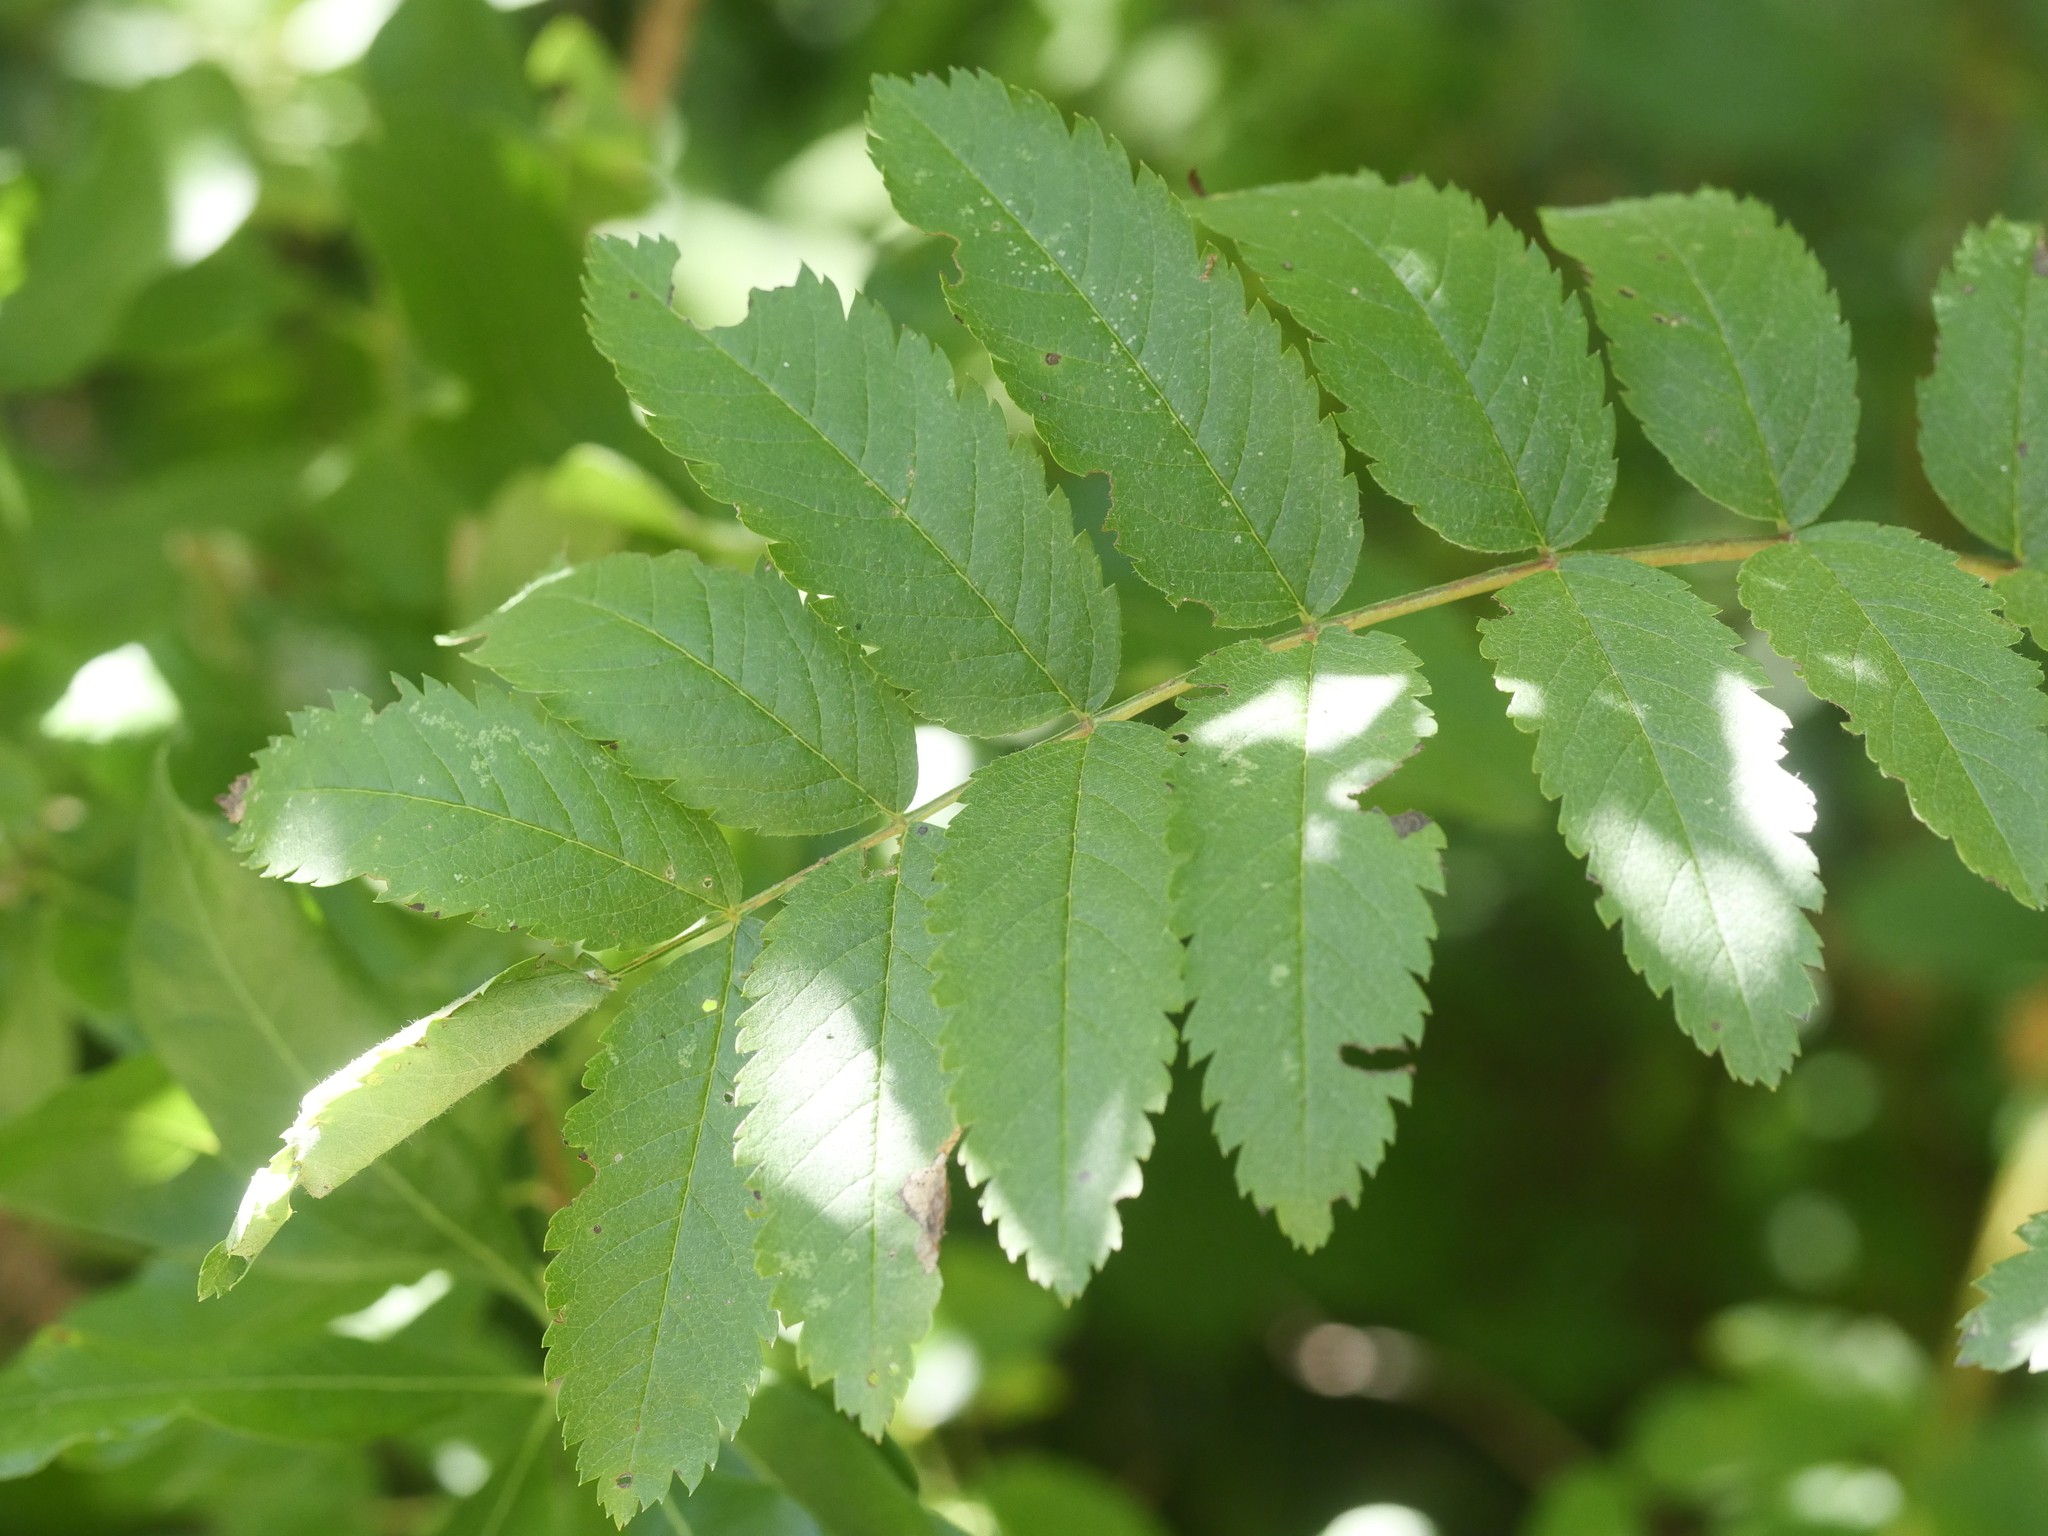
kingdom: Plantae
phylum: Tracheophyta
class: Magnoliopsida
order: Rosales
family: Rosaceae
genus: Sorbus
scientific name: Sorbus aucuparia
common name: Rowan
